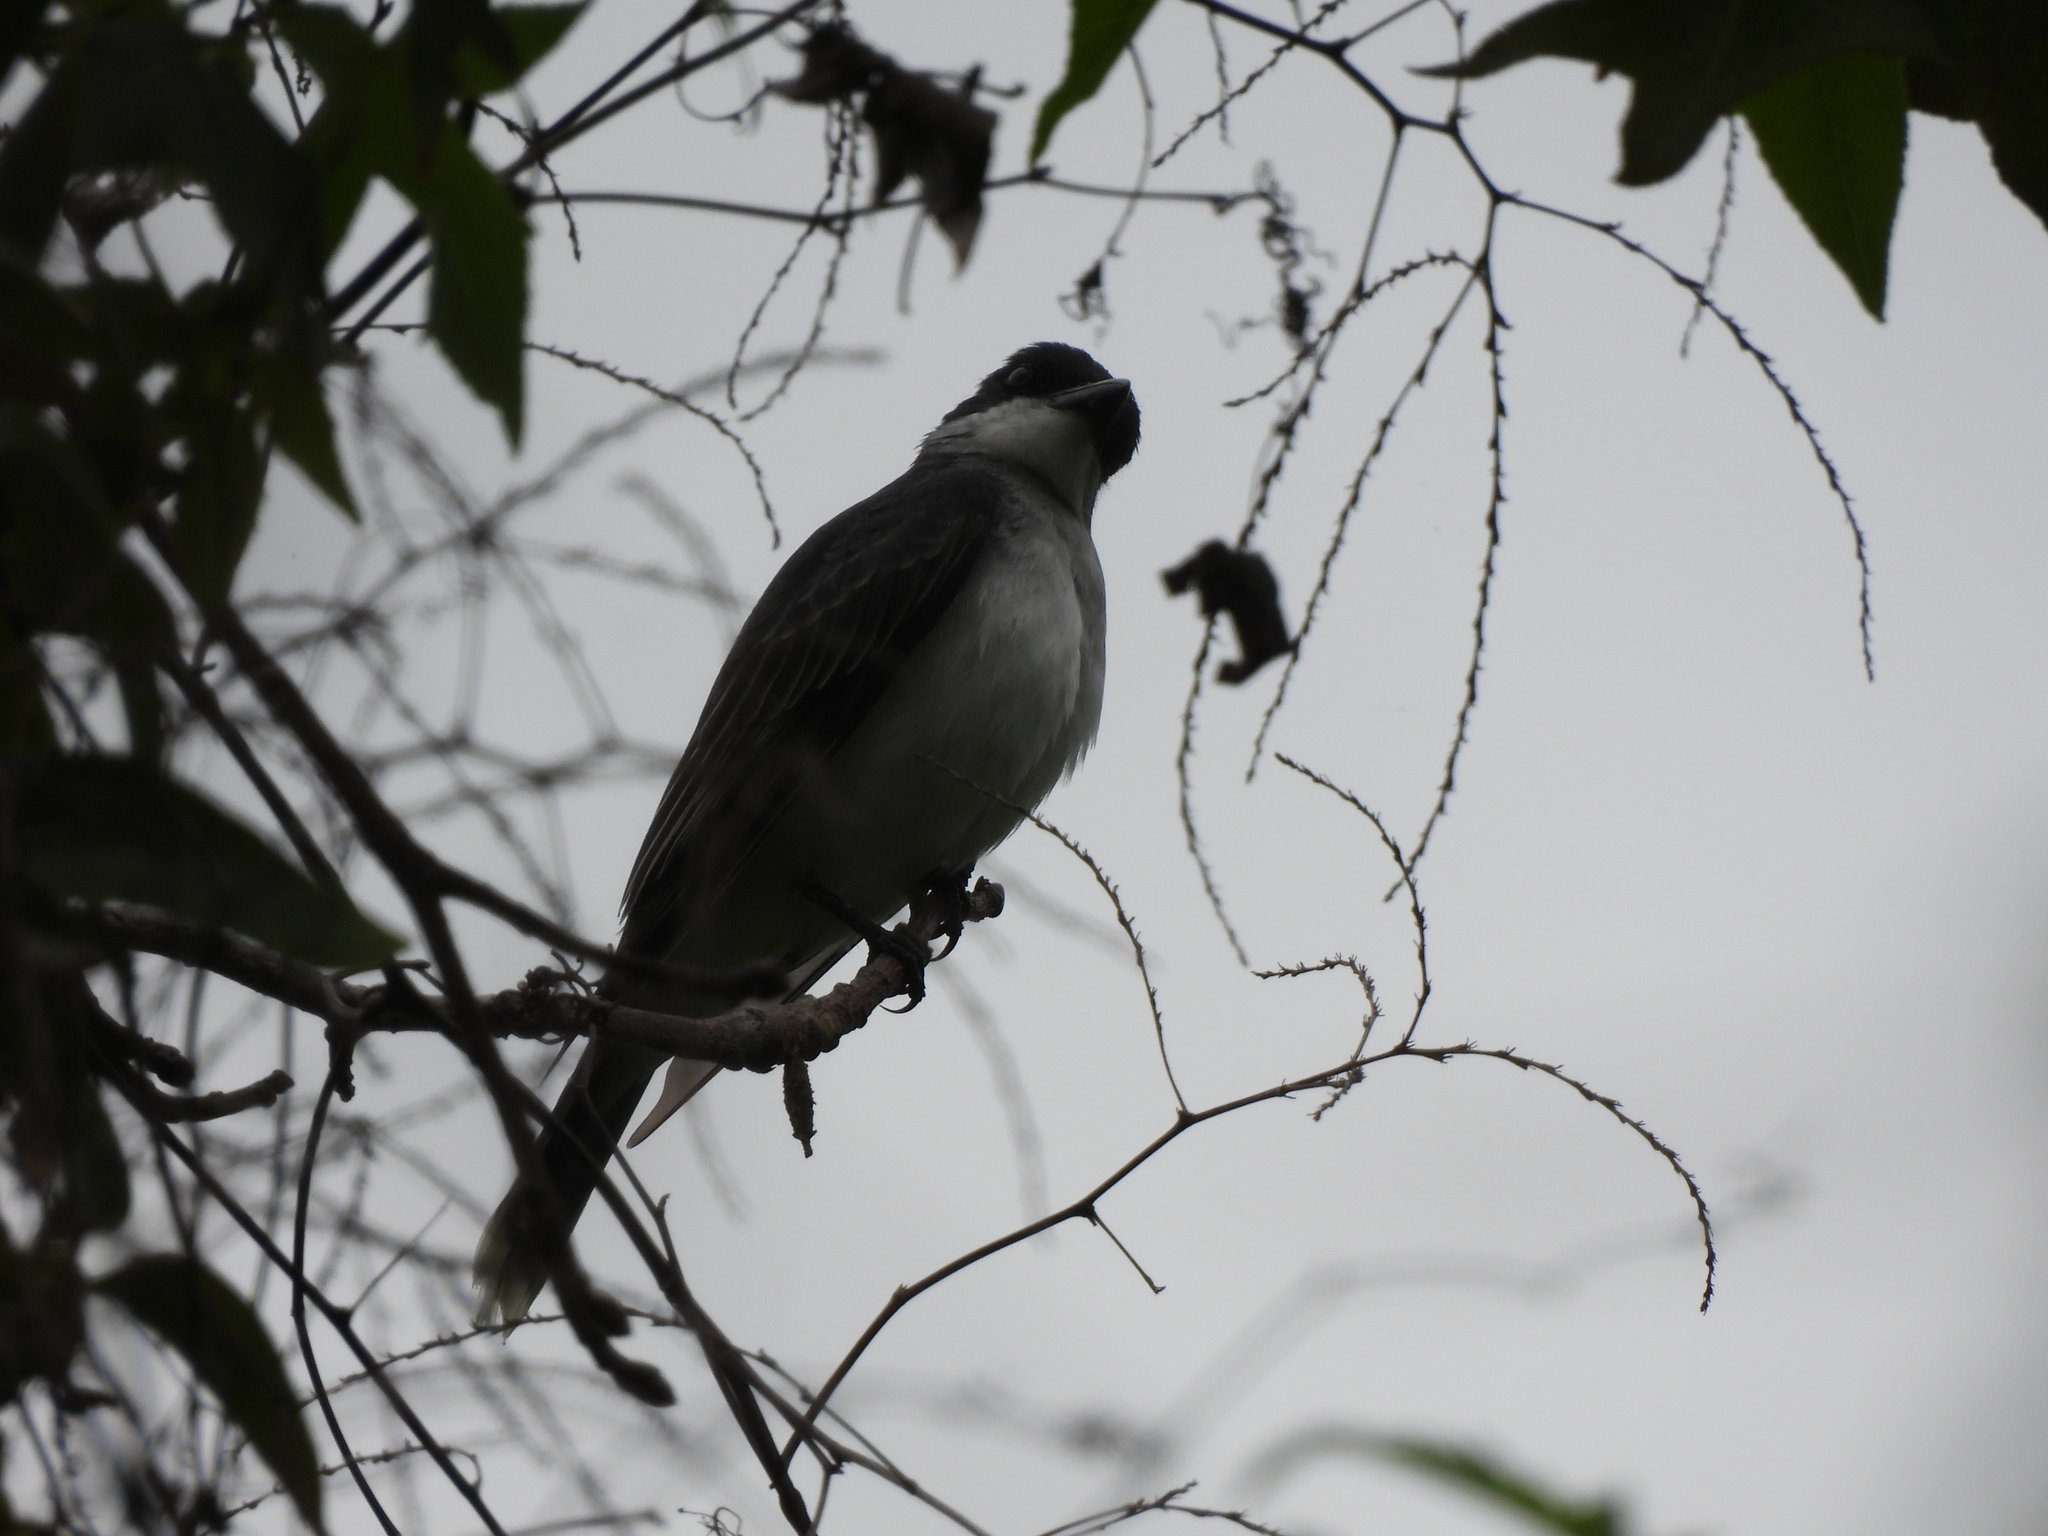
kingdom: Animalia
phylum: Chordata
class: Aves
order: Passeriformes
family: Tyrannidae
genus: Tyrannus
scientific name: Tyrannus tyrannus
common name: Eastern kingbird
